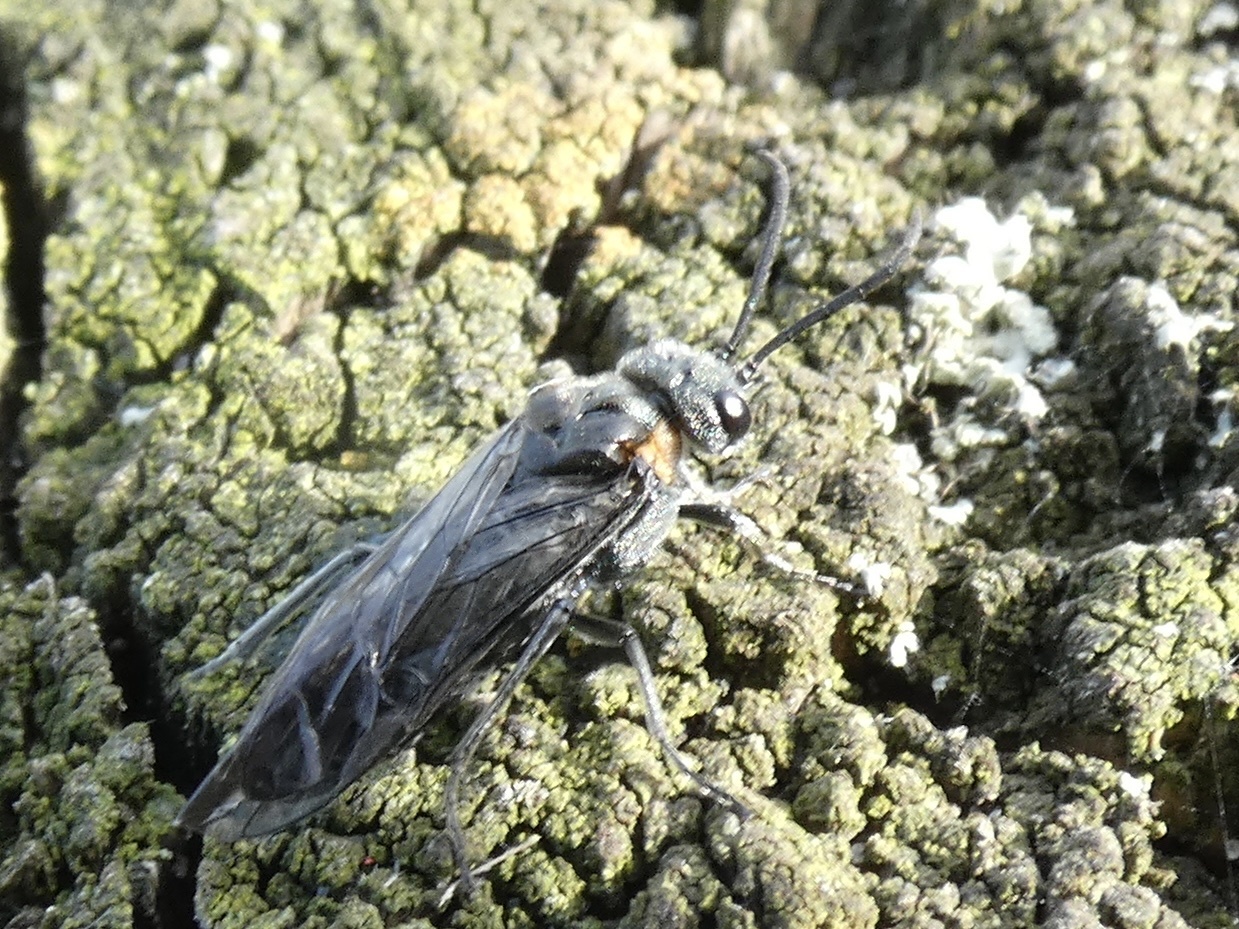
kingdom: Animalia
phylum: Arthropoda
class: Insecta
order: Hymenoptera
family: Tenthredinidae
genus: Dolerus
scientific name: Dolerus haematodes
